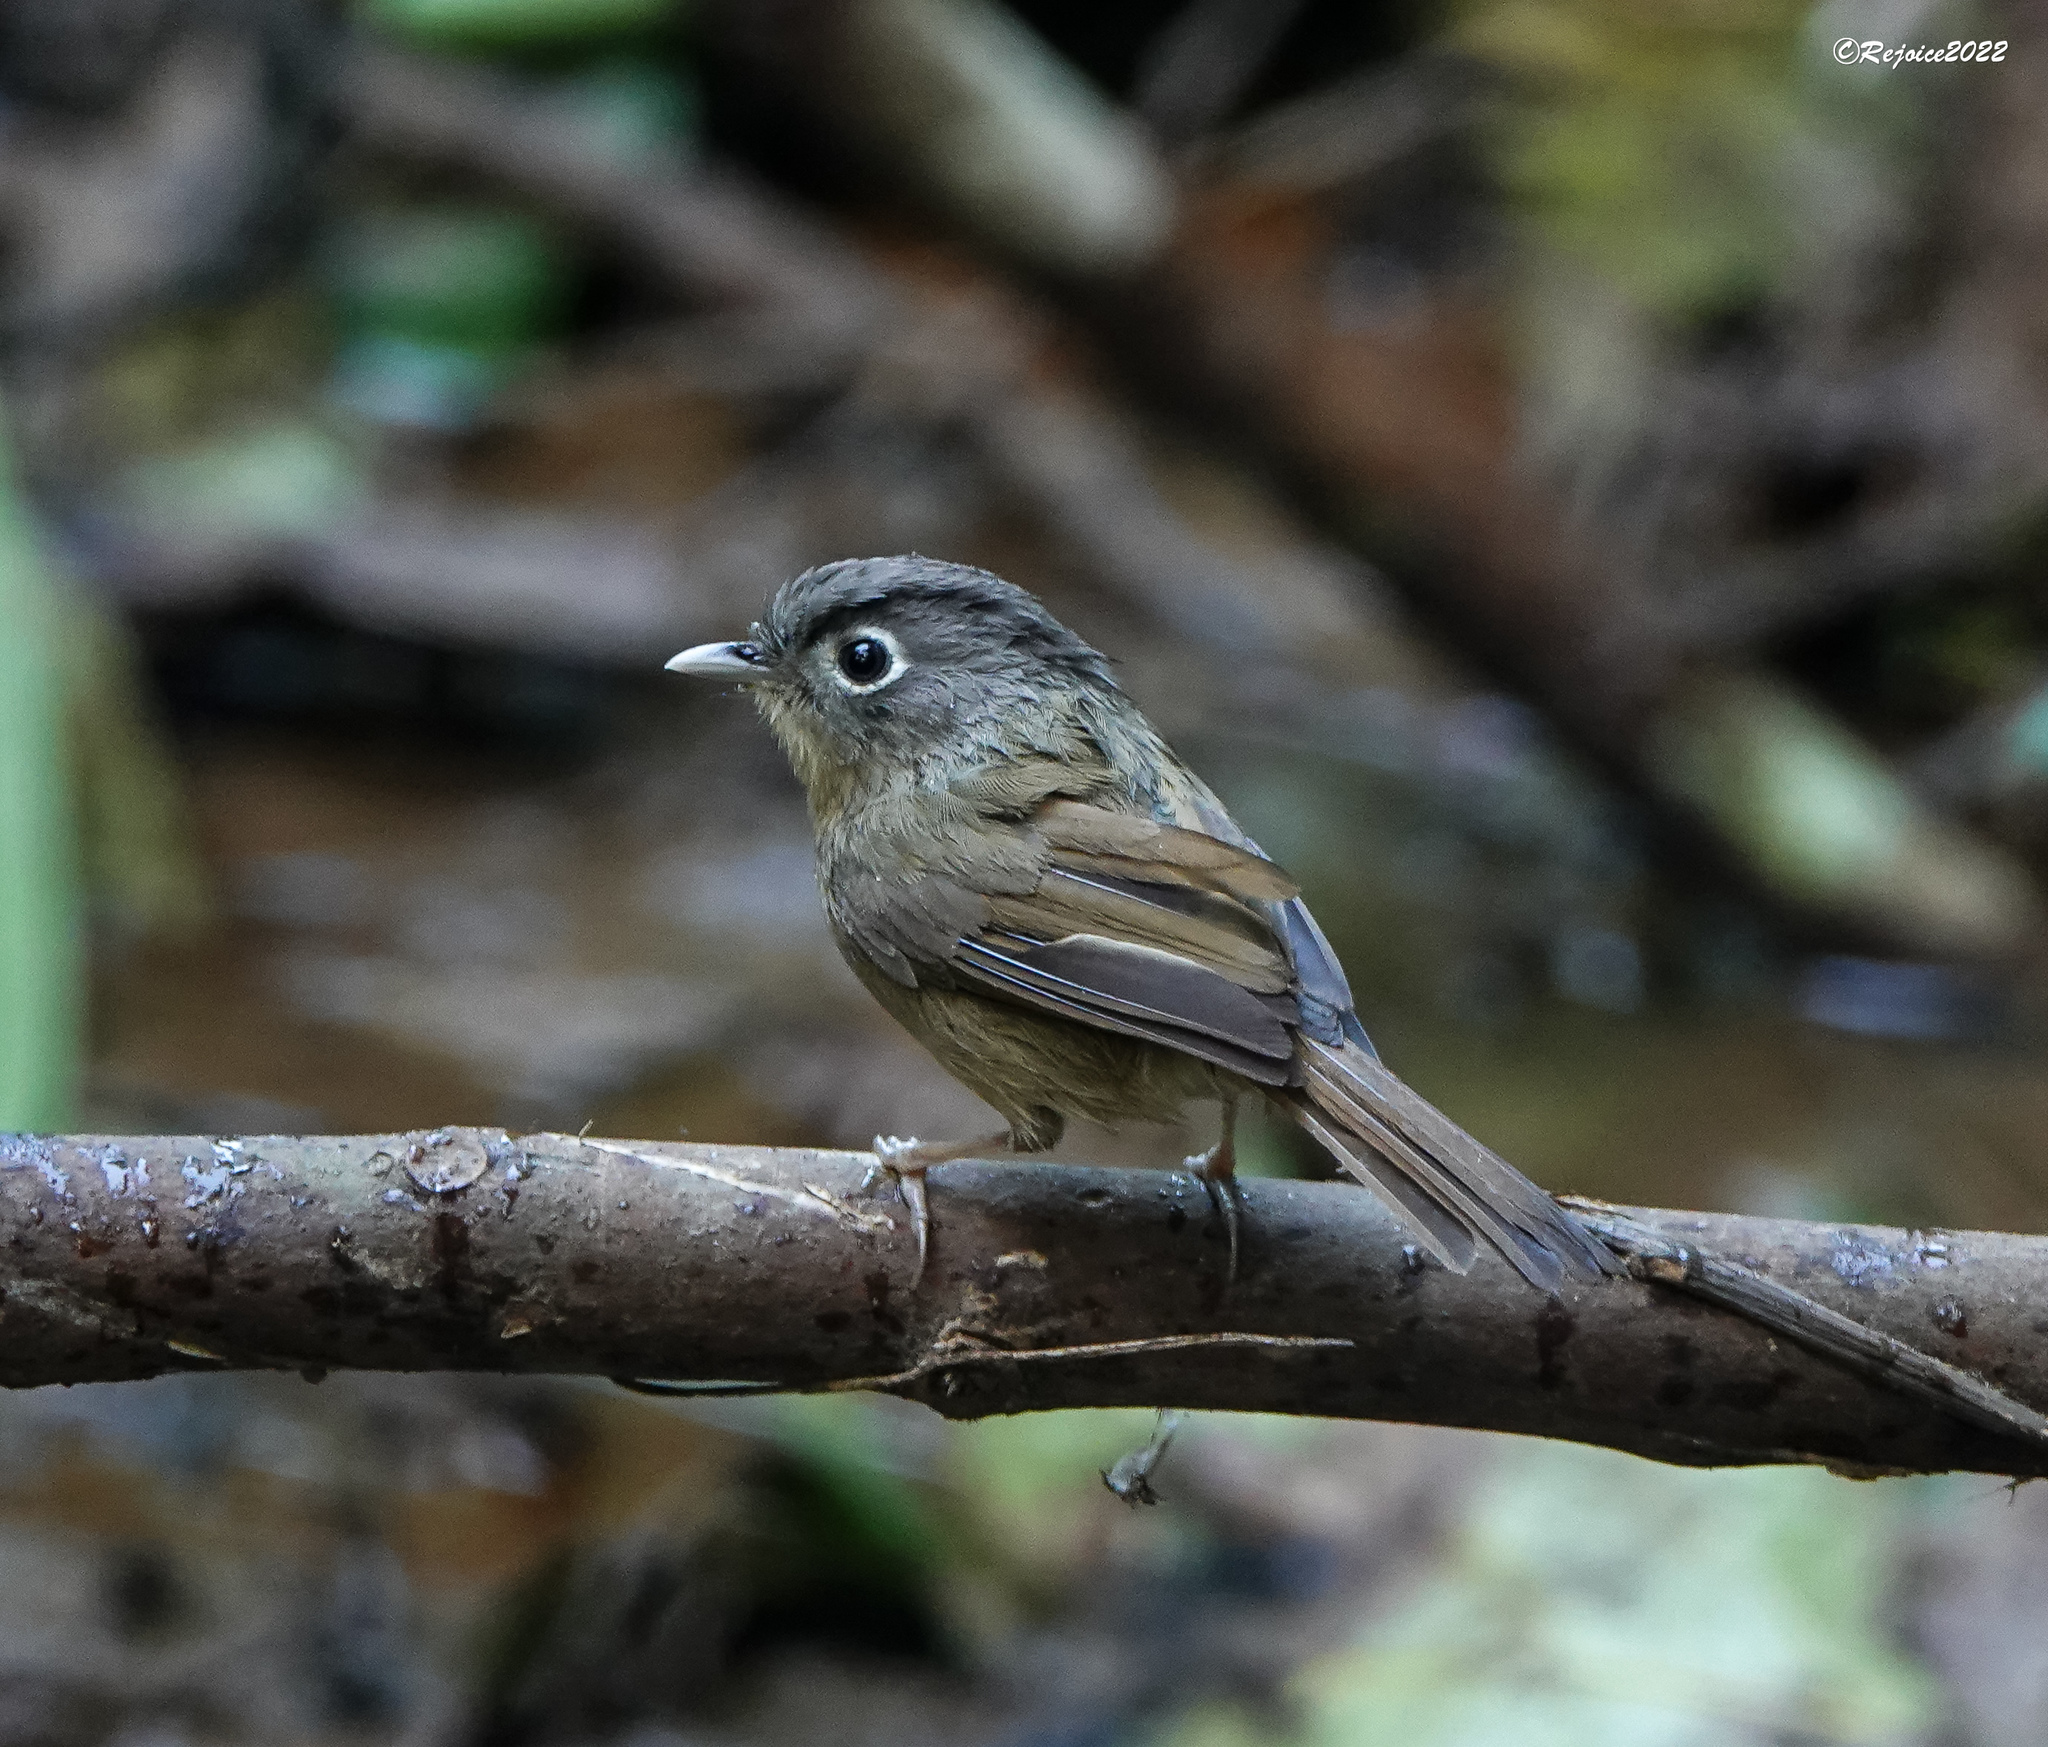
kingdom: Animalia
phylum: Chordata
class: Aves
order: Passeriformes
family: Pellorneidae
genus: Alcippe
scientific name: Alcippe nipalensis
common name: Nepal fulvetta
